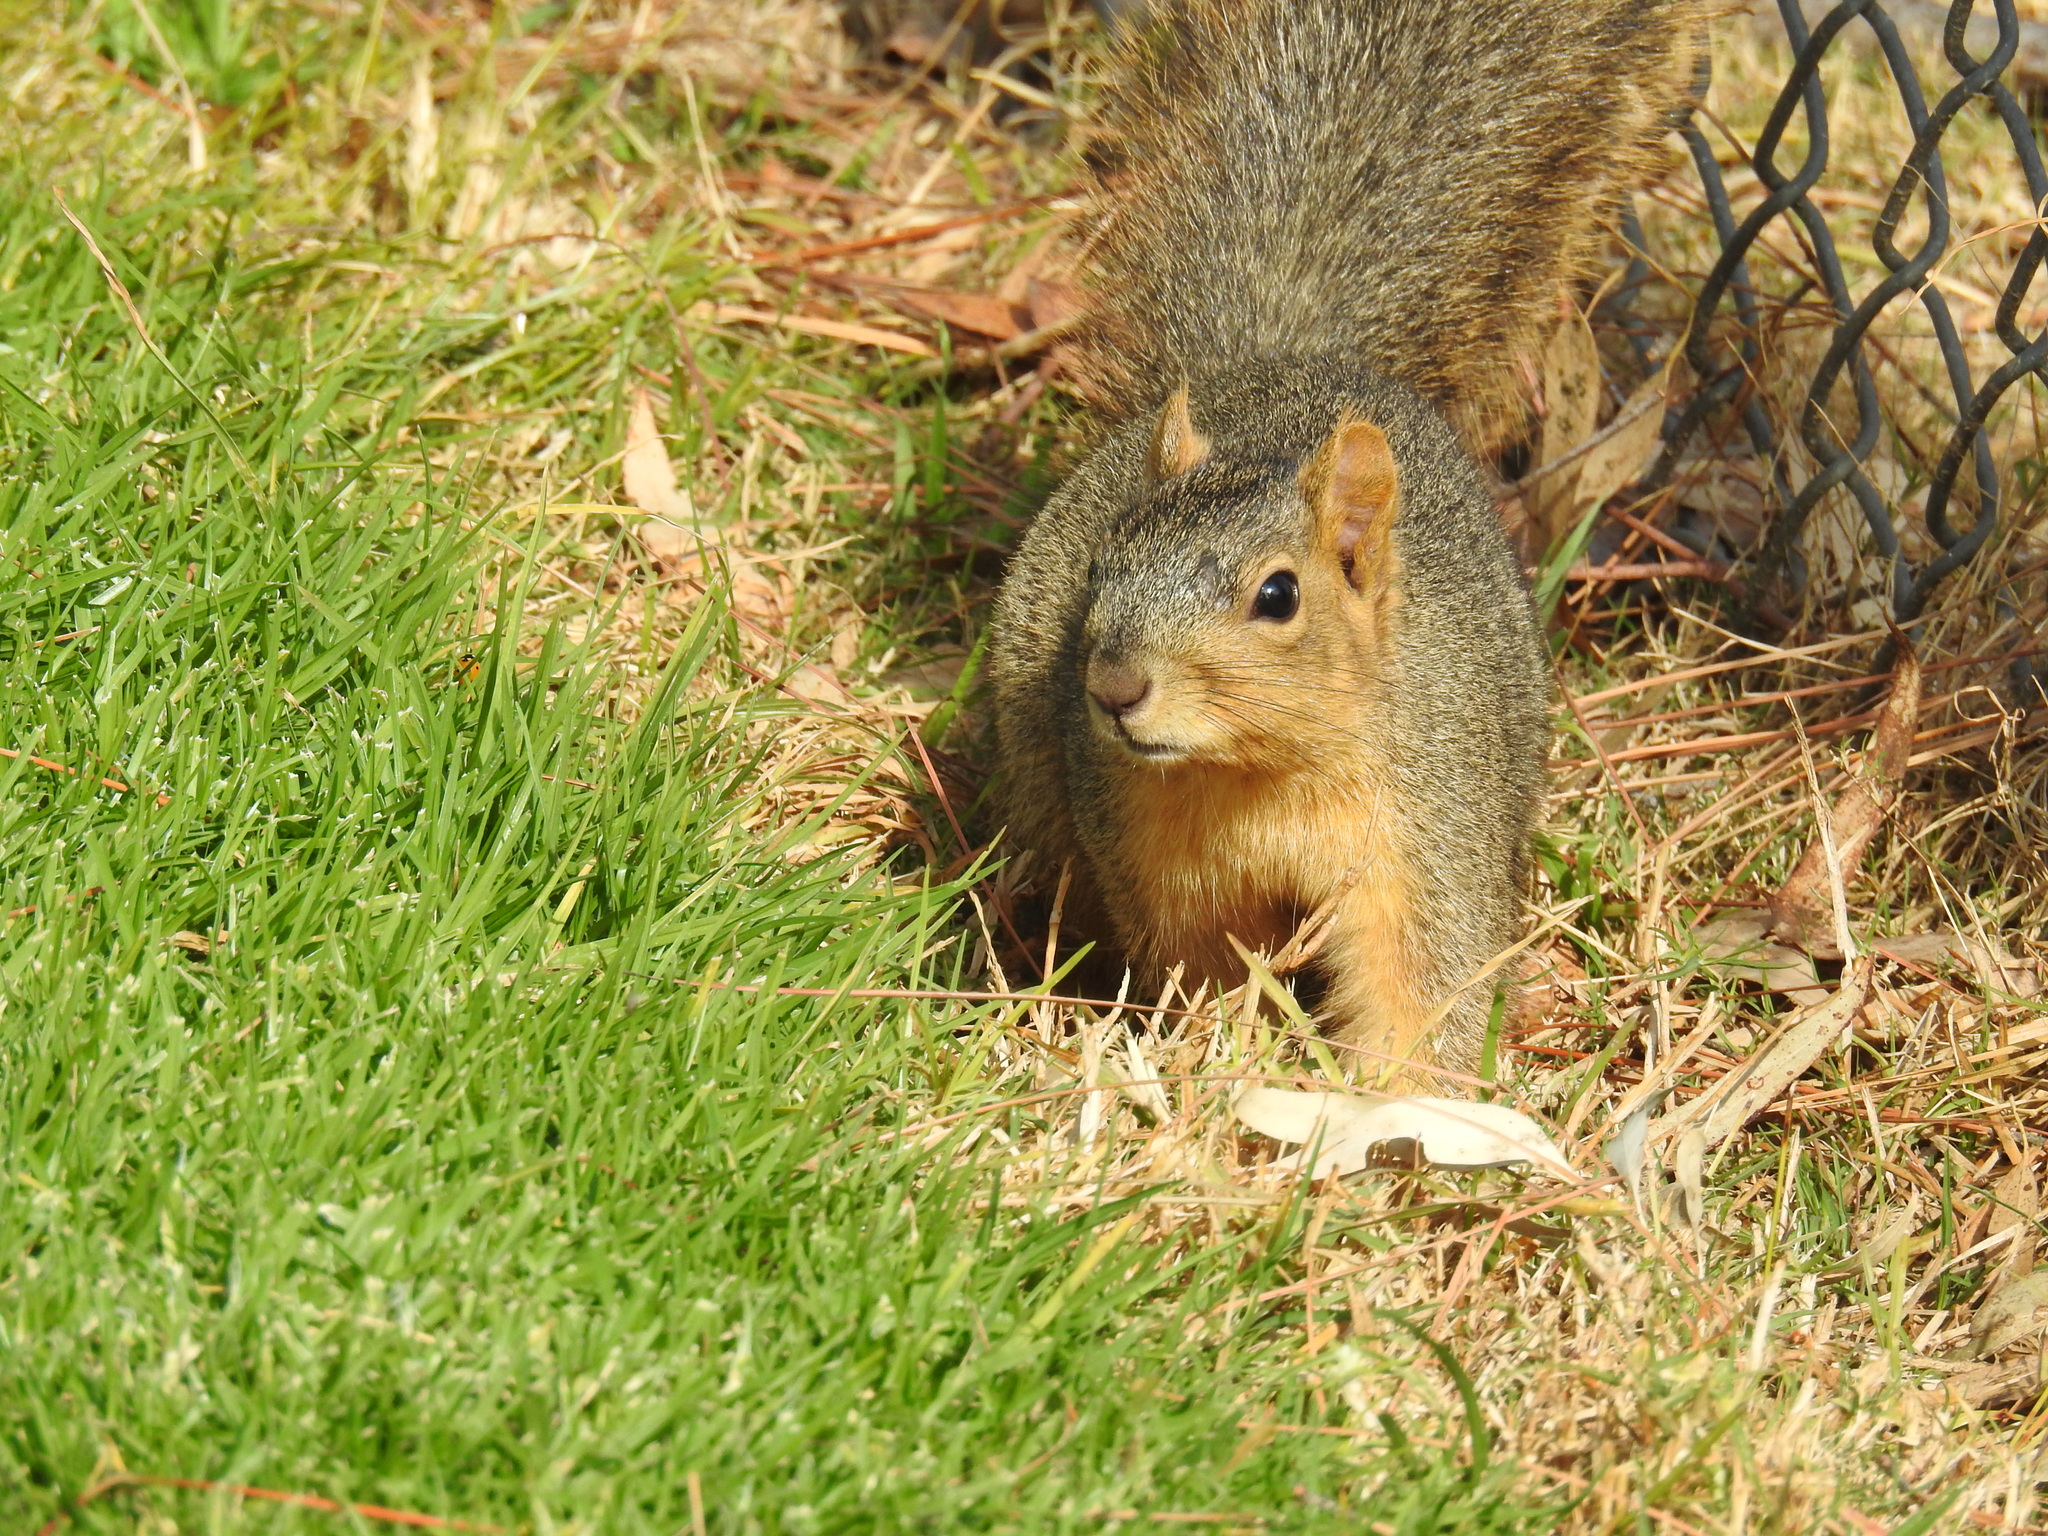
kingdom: Animalia
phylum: Chordata
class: Mammalia
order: Rodentia
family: Sciuridae
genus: Sciurus
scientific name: Sciurus niger
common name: Fox squirrel
